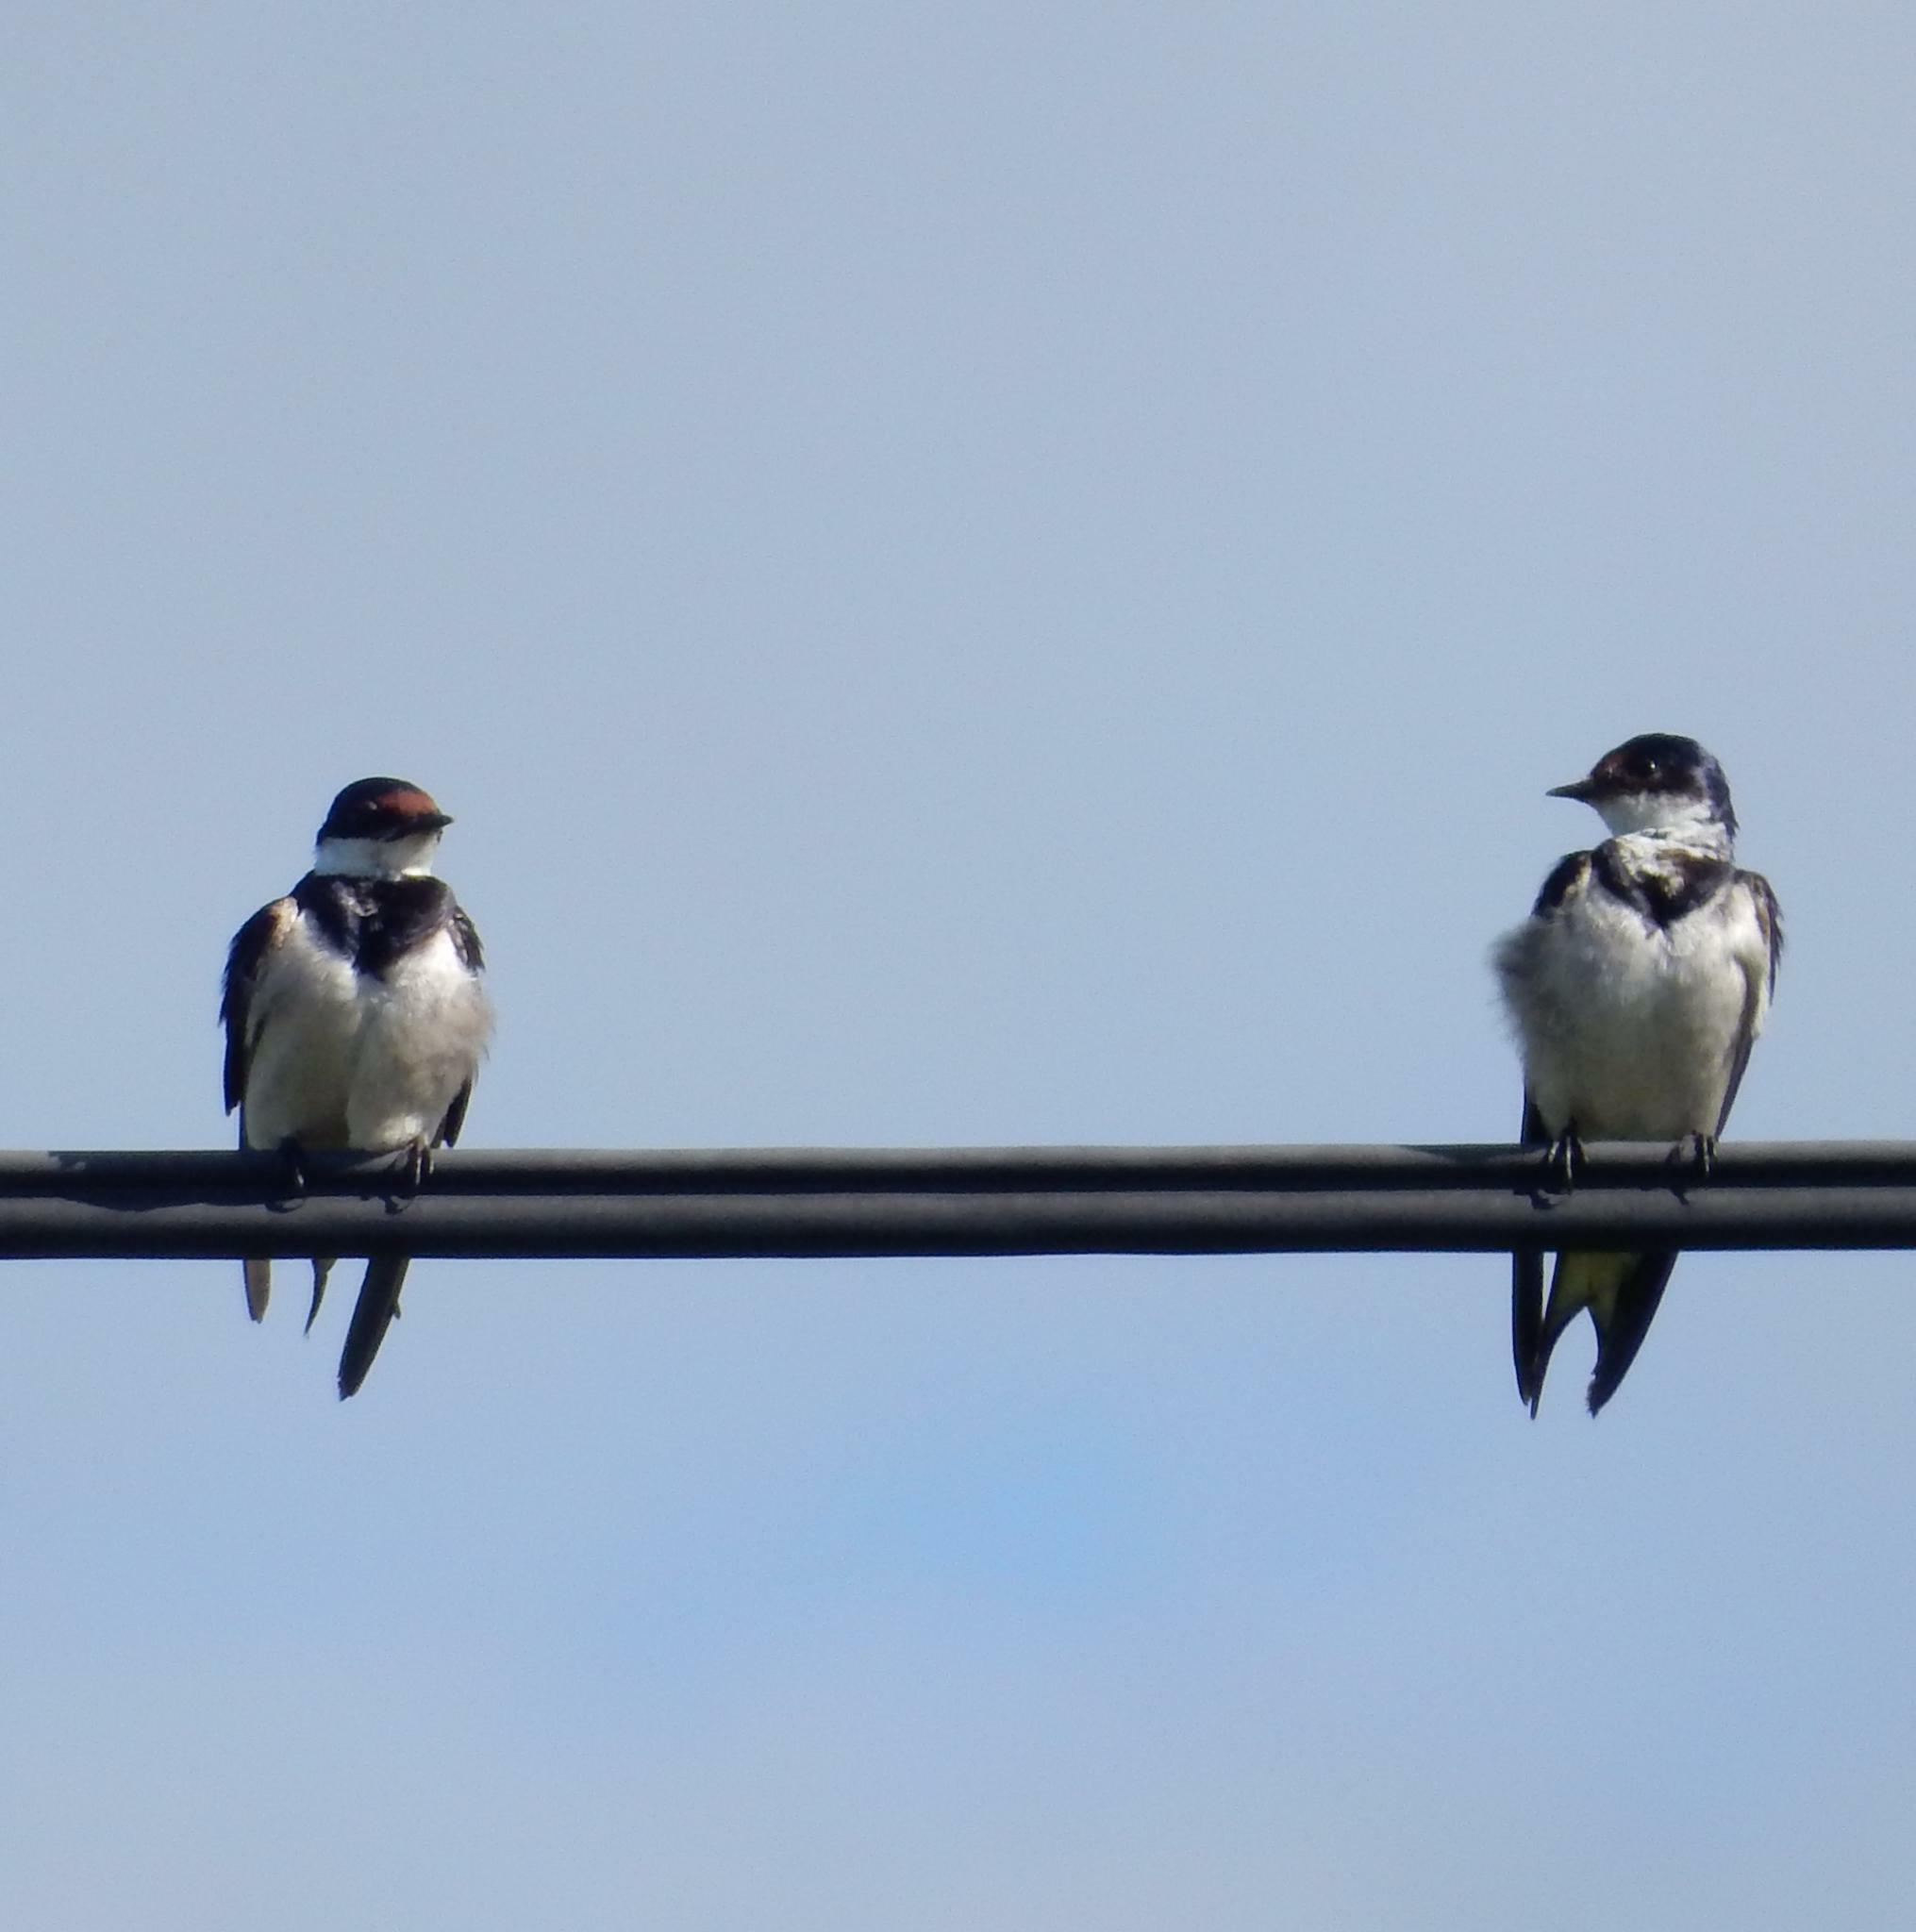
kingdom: Animalia
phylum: Chordata
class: Aves
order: Passeriformes
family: Hirundinidae
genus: Hirundo
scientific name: Hirundo albigularis
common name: White-throated swallow
